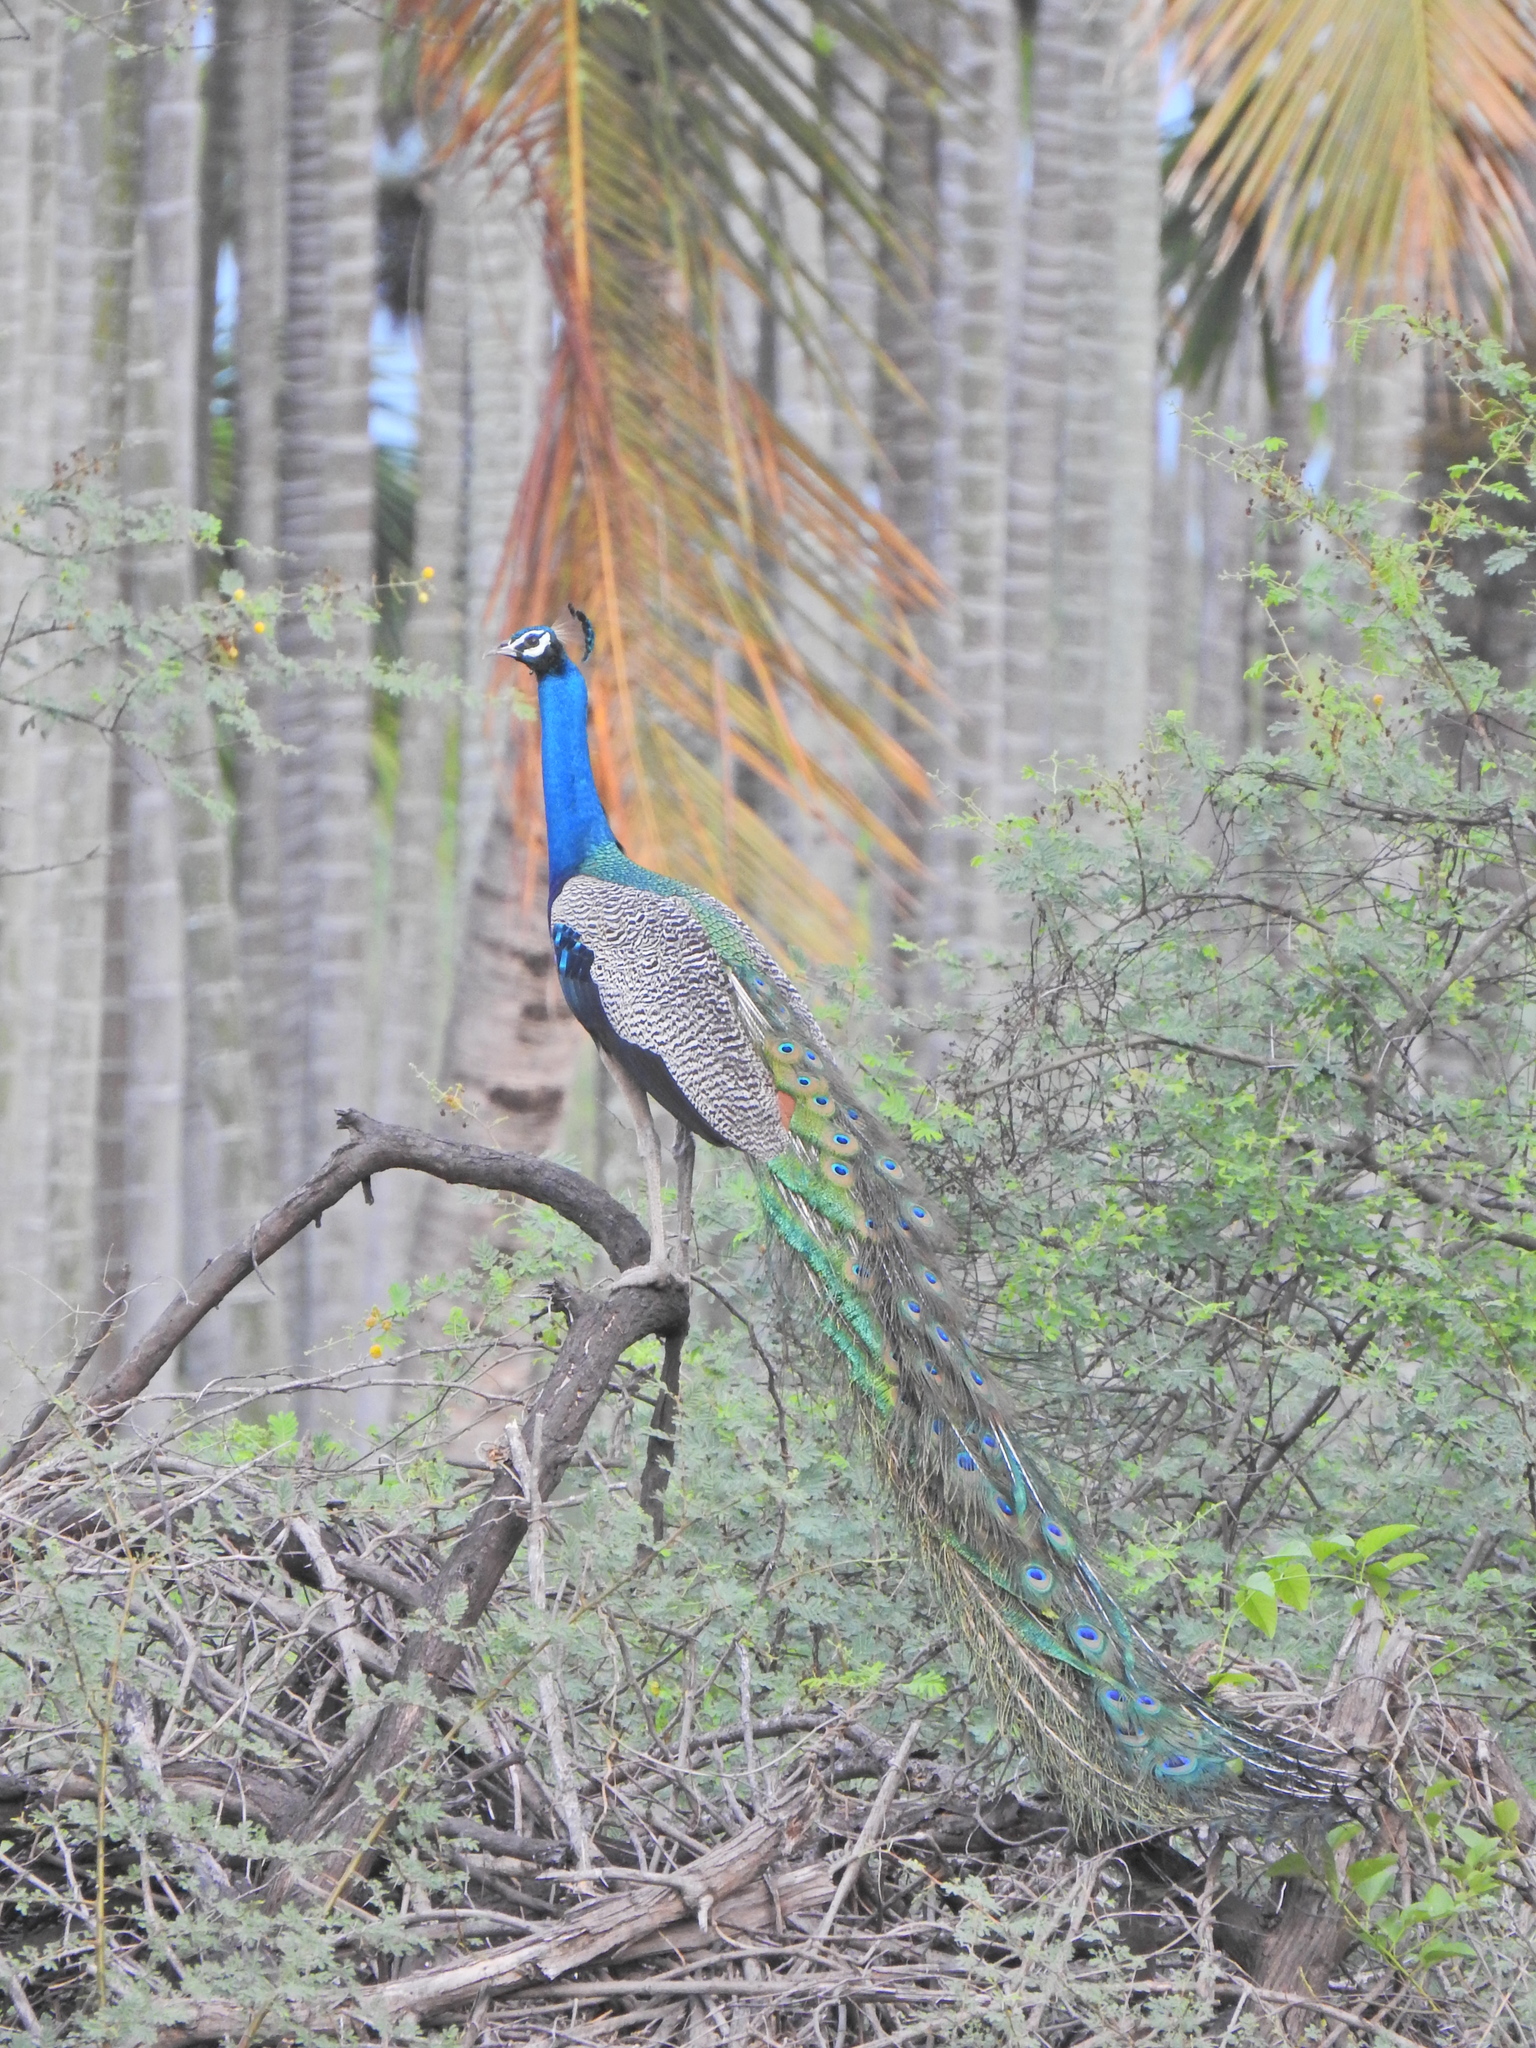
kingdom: Animalia
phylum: Chordata
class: Aves
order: Galliformes
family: Phasianidae
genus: Pavo
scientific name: Pavo cristatus
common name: Indian peafowl
